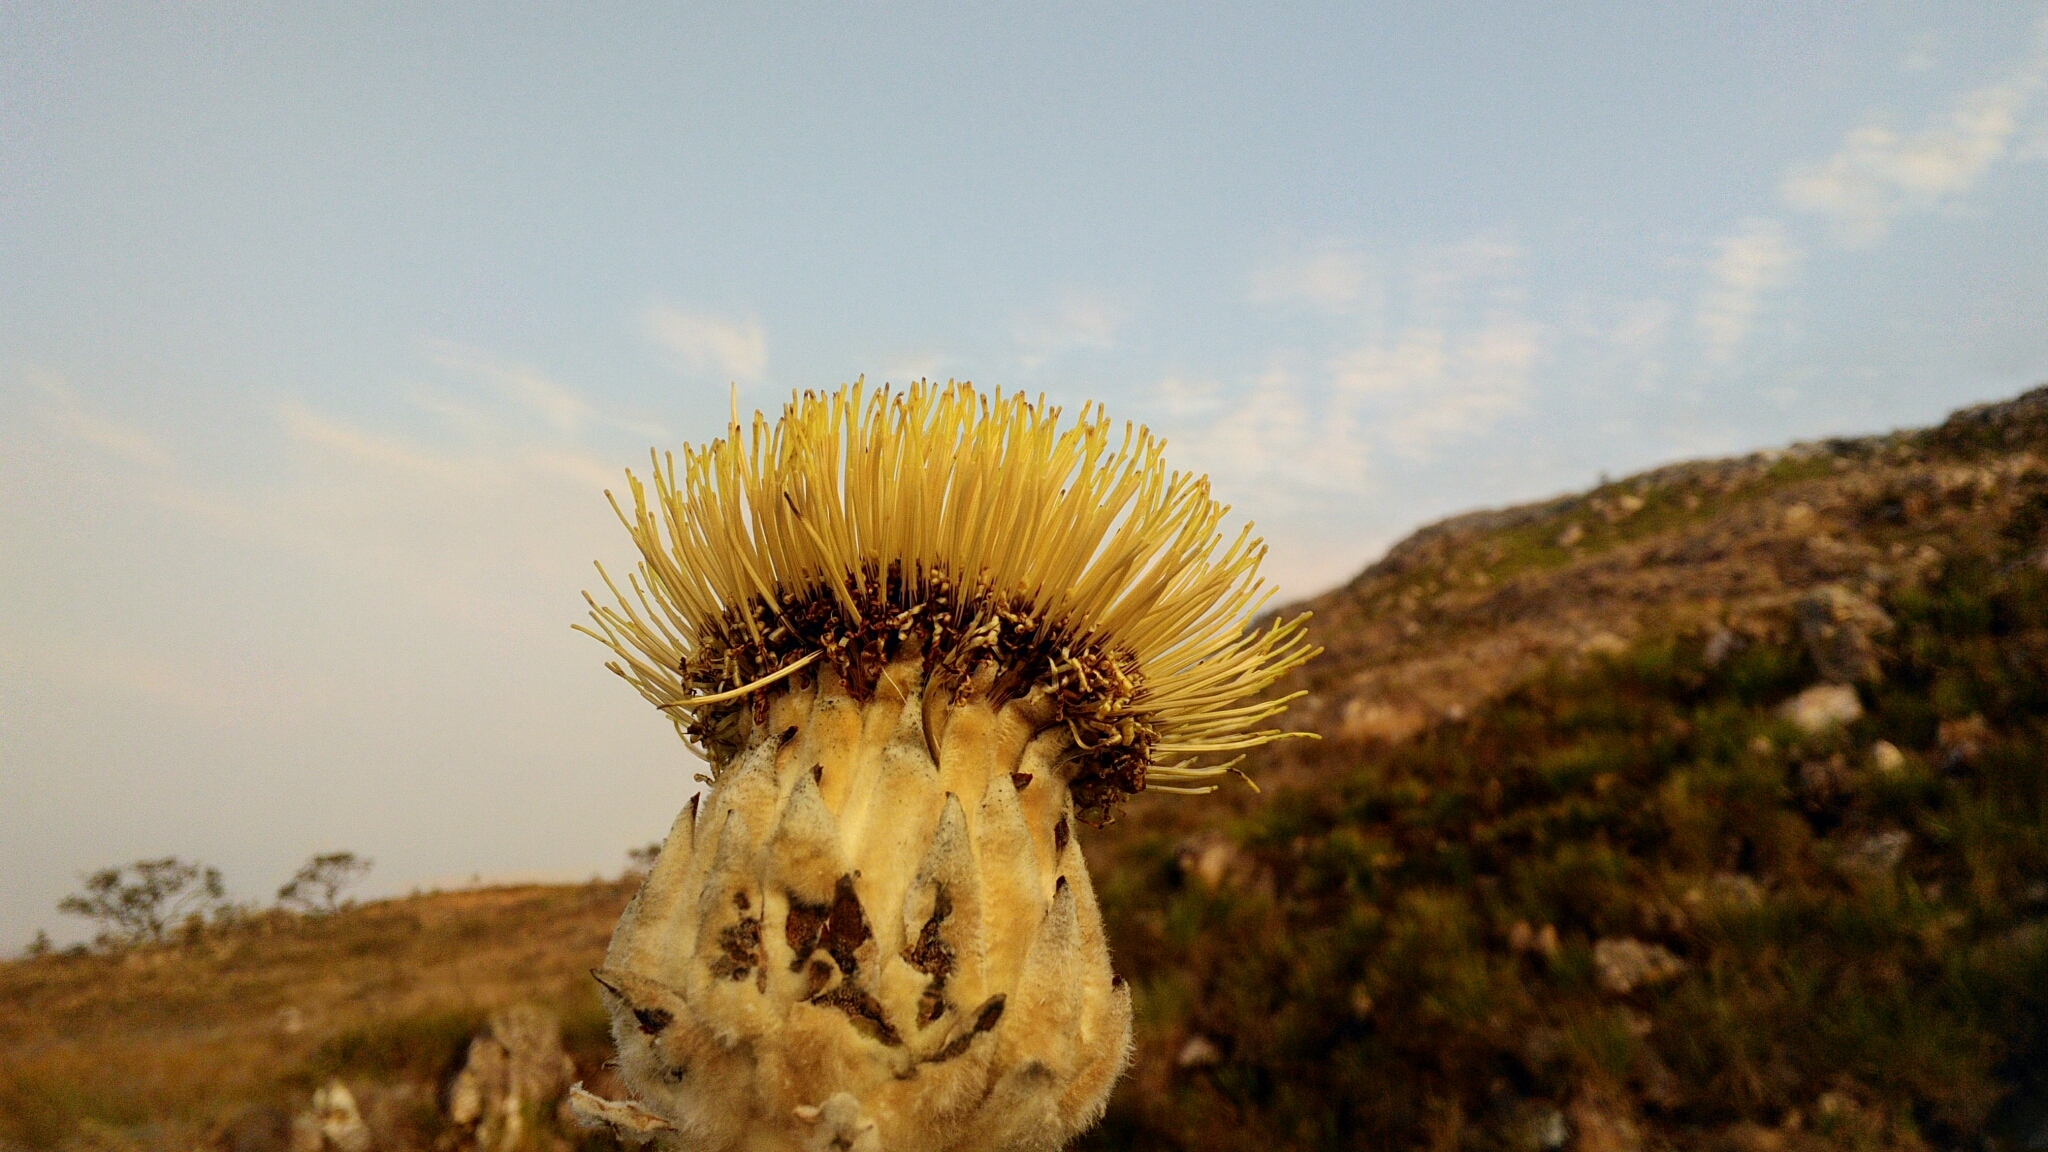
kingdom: Plantae
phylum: Tracheophyta
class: Magnoliopsida
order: Asterales
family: Asteraceae
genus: Wunderlichia
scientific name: Wunderlichia mirabilis
